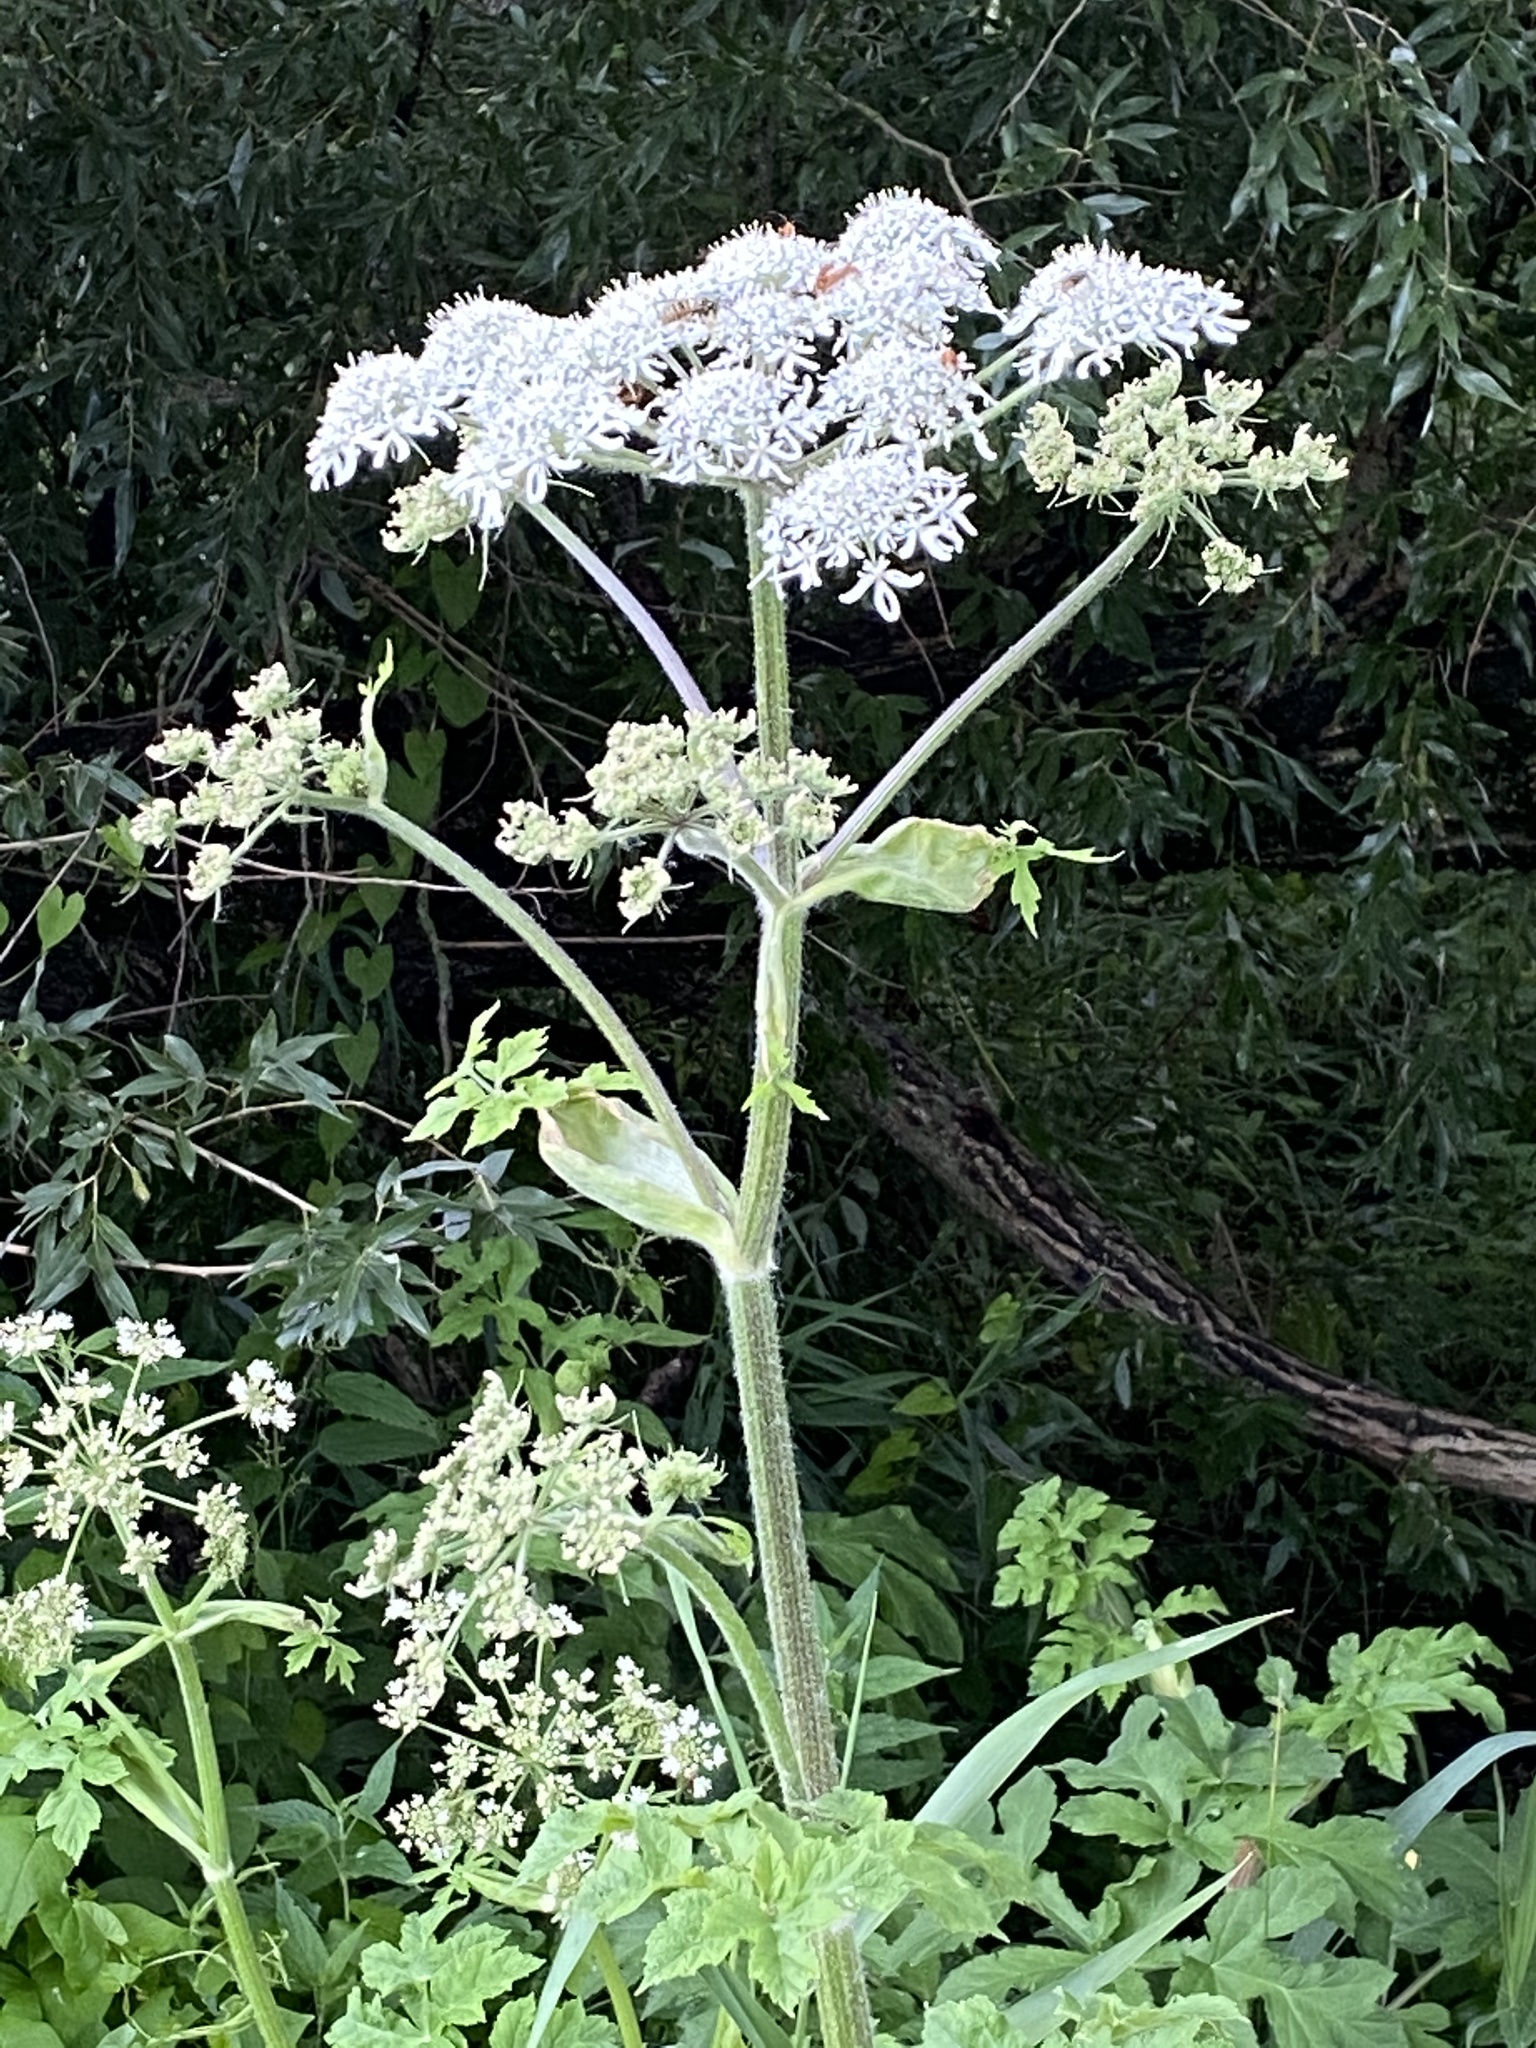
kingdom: Plantae
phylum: Tracheophyta
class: Magnoliopsida
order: Apiales
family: Apiaceae
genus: Heracleum
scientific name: Heracleum sphondylium
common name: Hogweed
